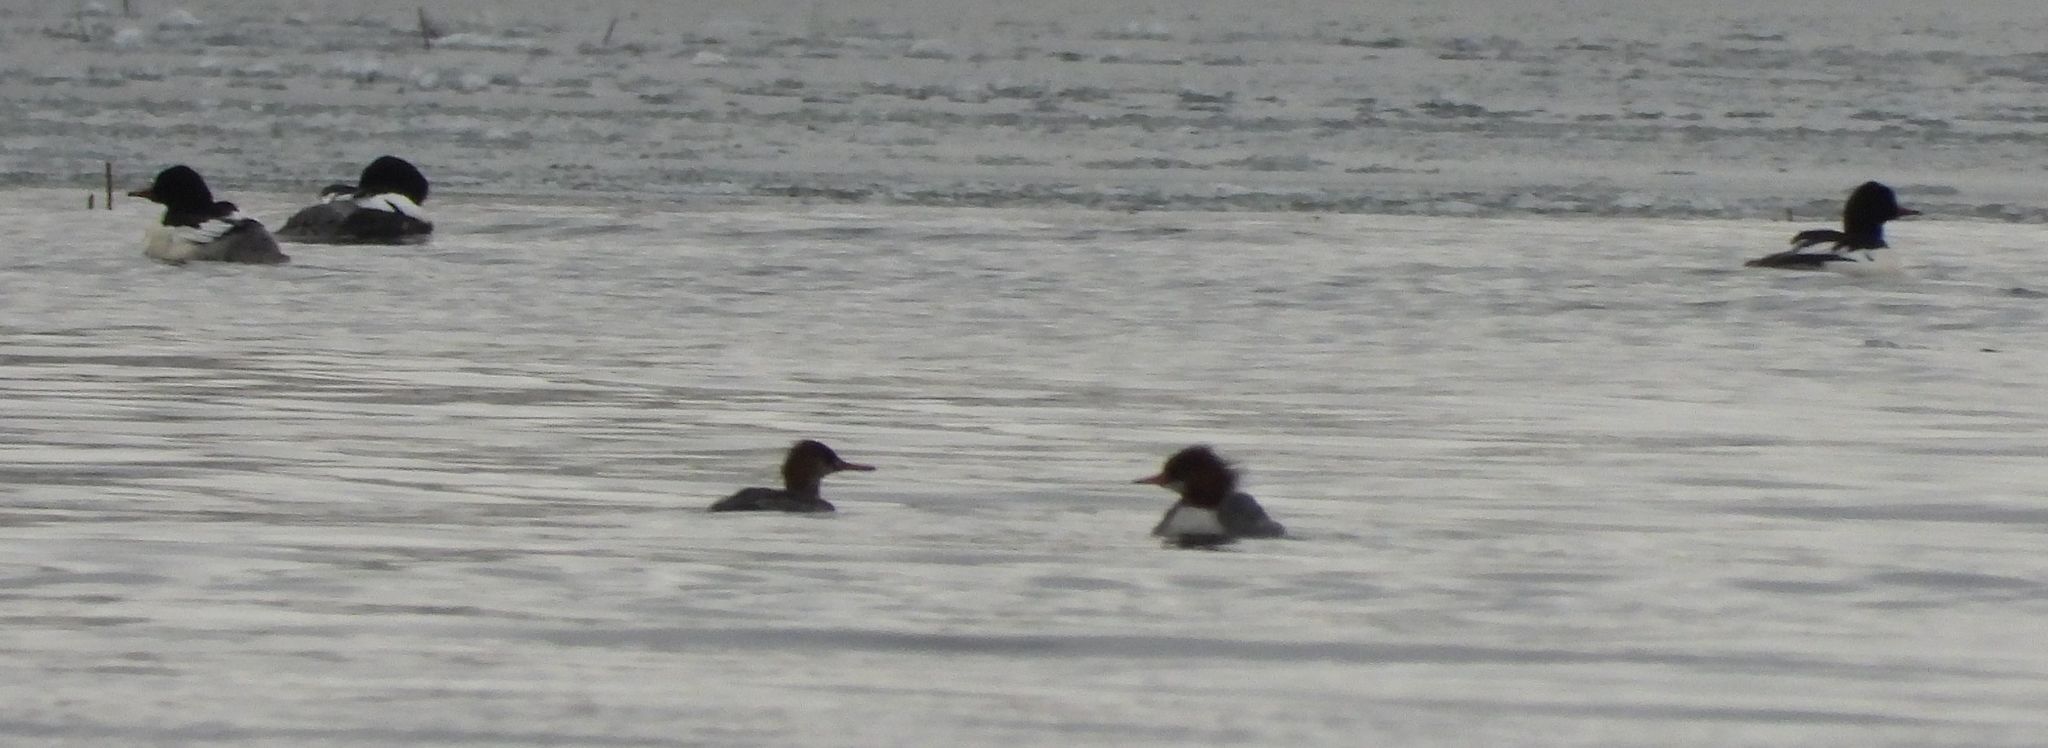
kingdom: Animalia
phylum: Chordata
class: Aves
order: Anseriformes
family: Anatidae
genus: Mergus
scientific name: Mergus merganser
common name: Common merganser
